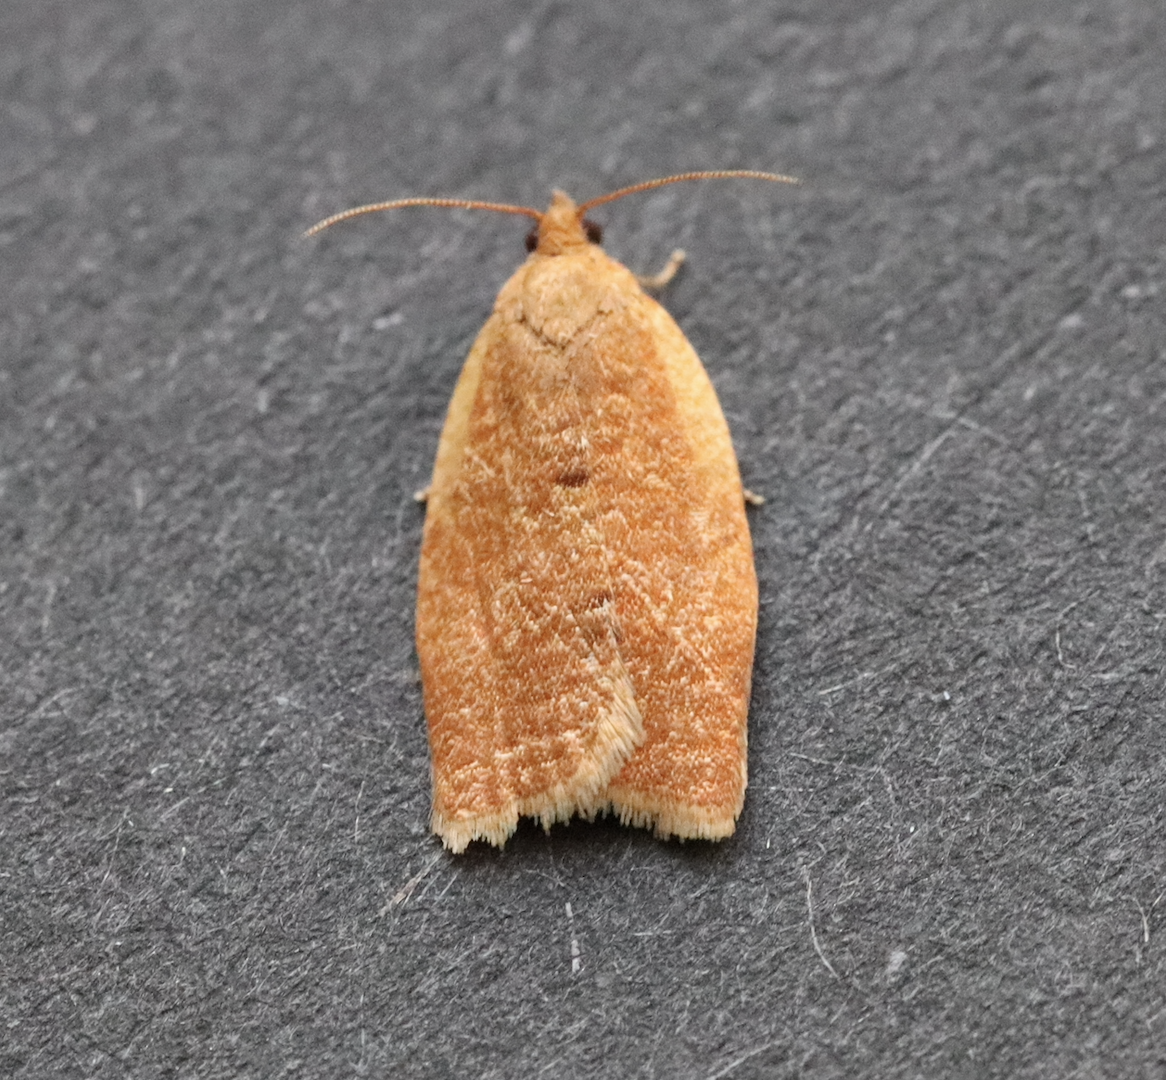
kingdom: Animalia
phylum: Arthropoda
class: Insecta
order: Lepidoptera
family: Tortricidae
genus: Clepsis
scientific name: Clepsis consimilana
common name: Privet tortrix
